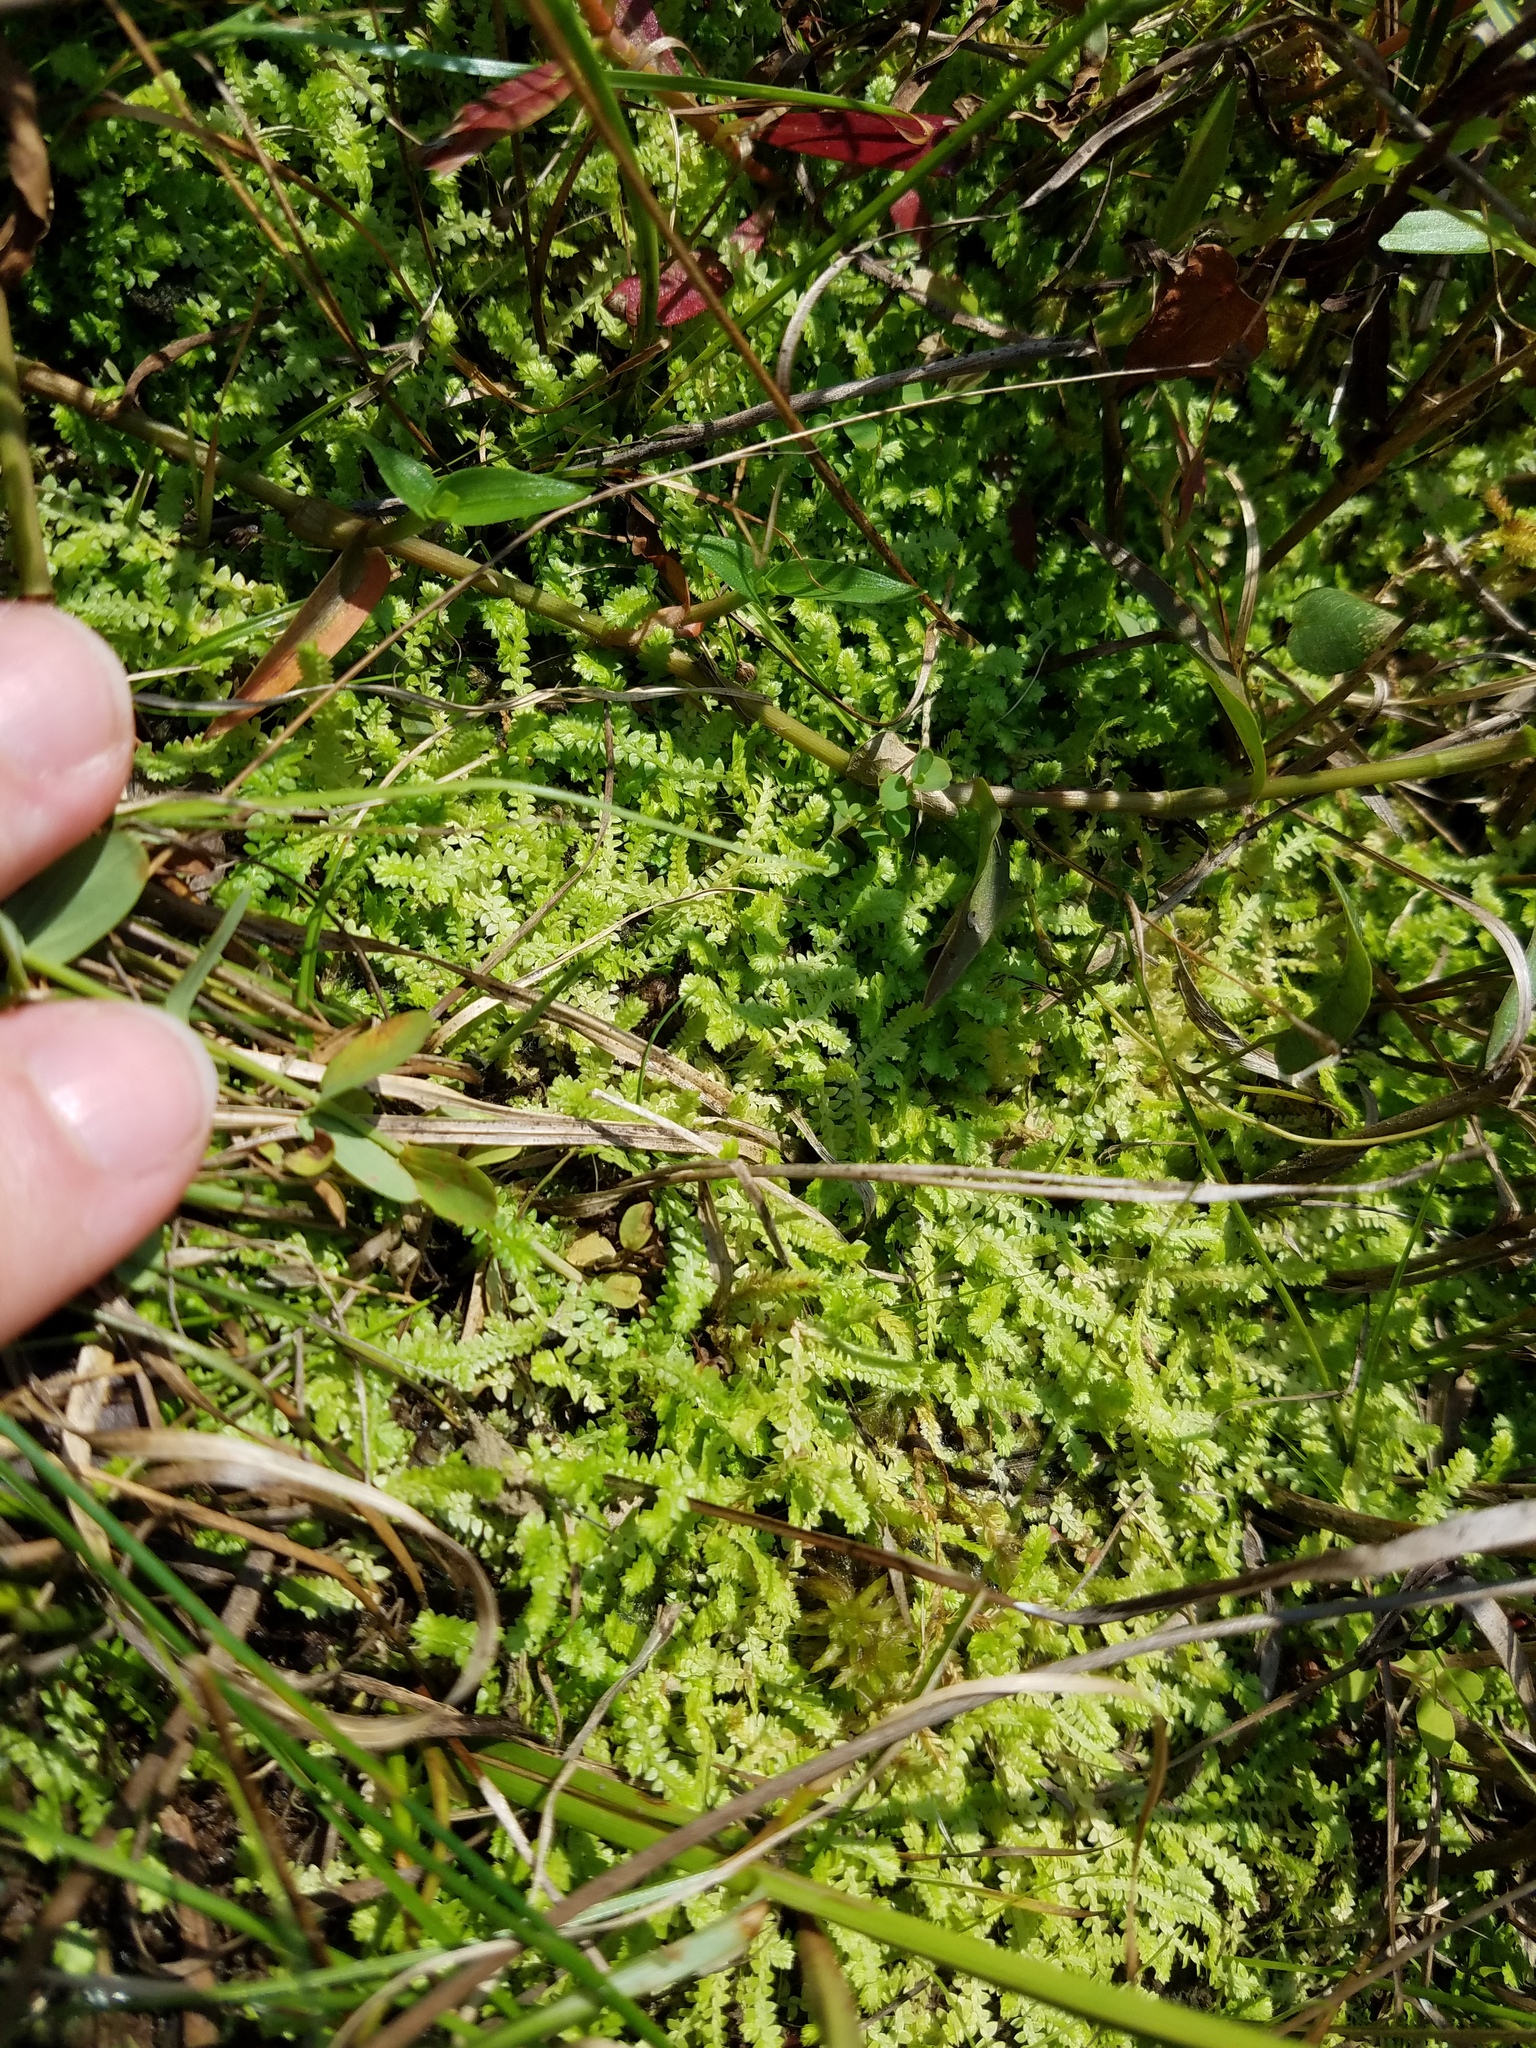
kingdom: Plantae
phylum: Tracheophyta
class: Lycopodiopsida
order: Selaginellales
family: Selaginellaceae
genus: Selaginella
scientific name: Selaginella apoda
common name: Creeping spikemoss
